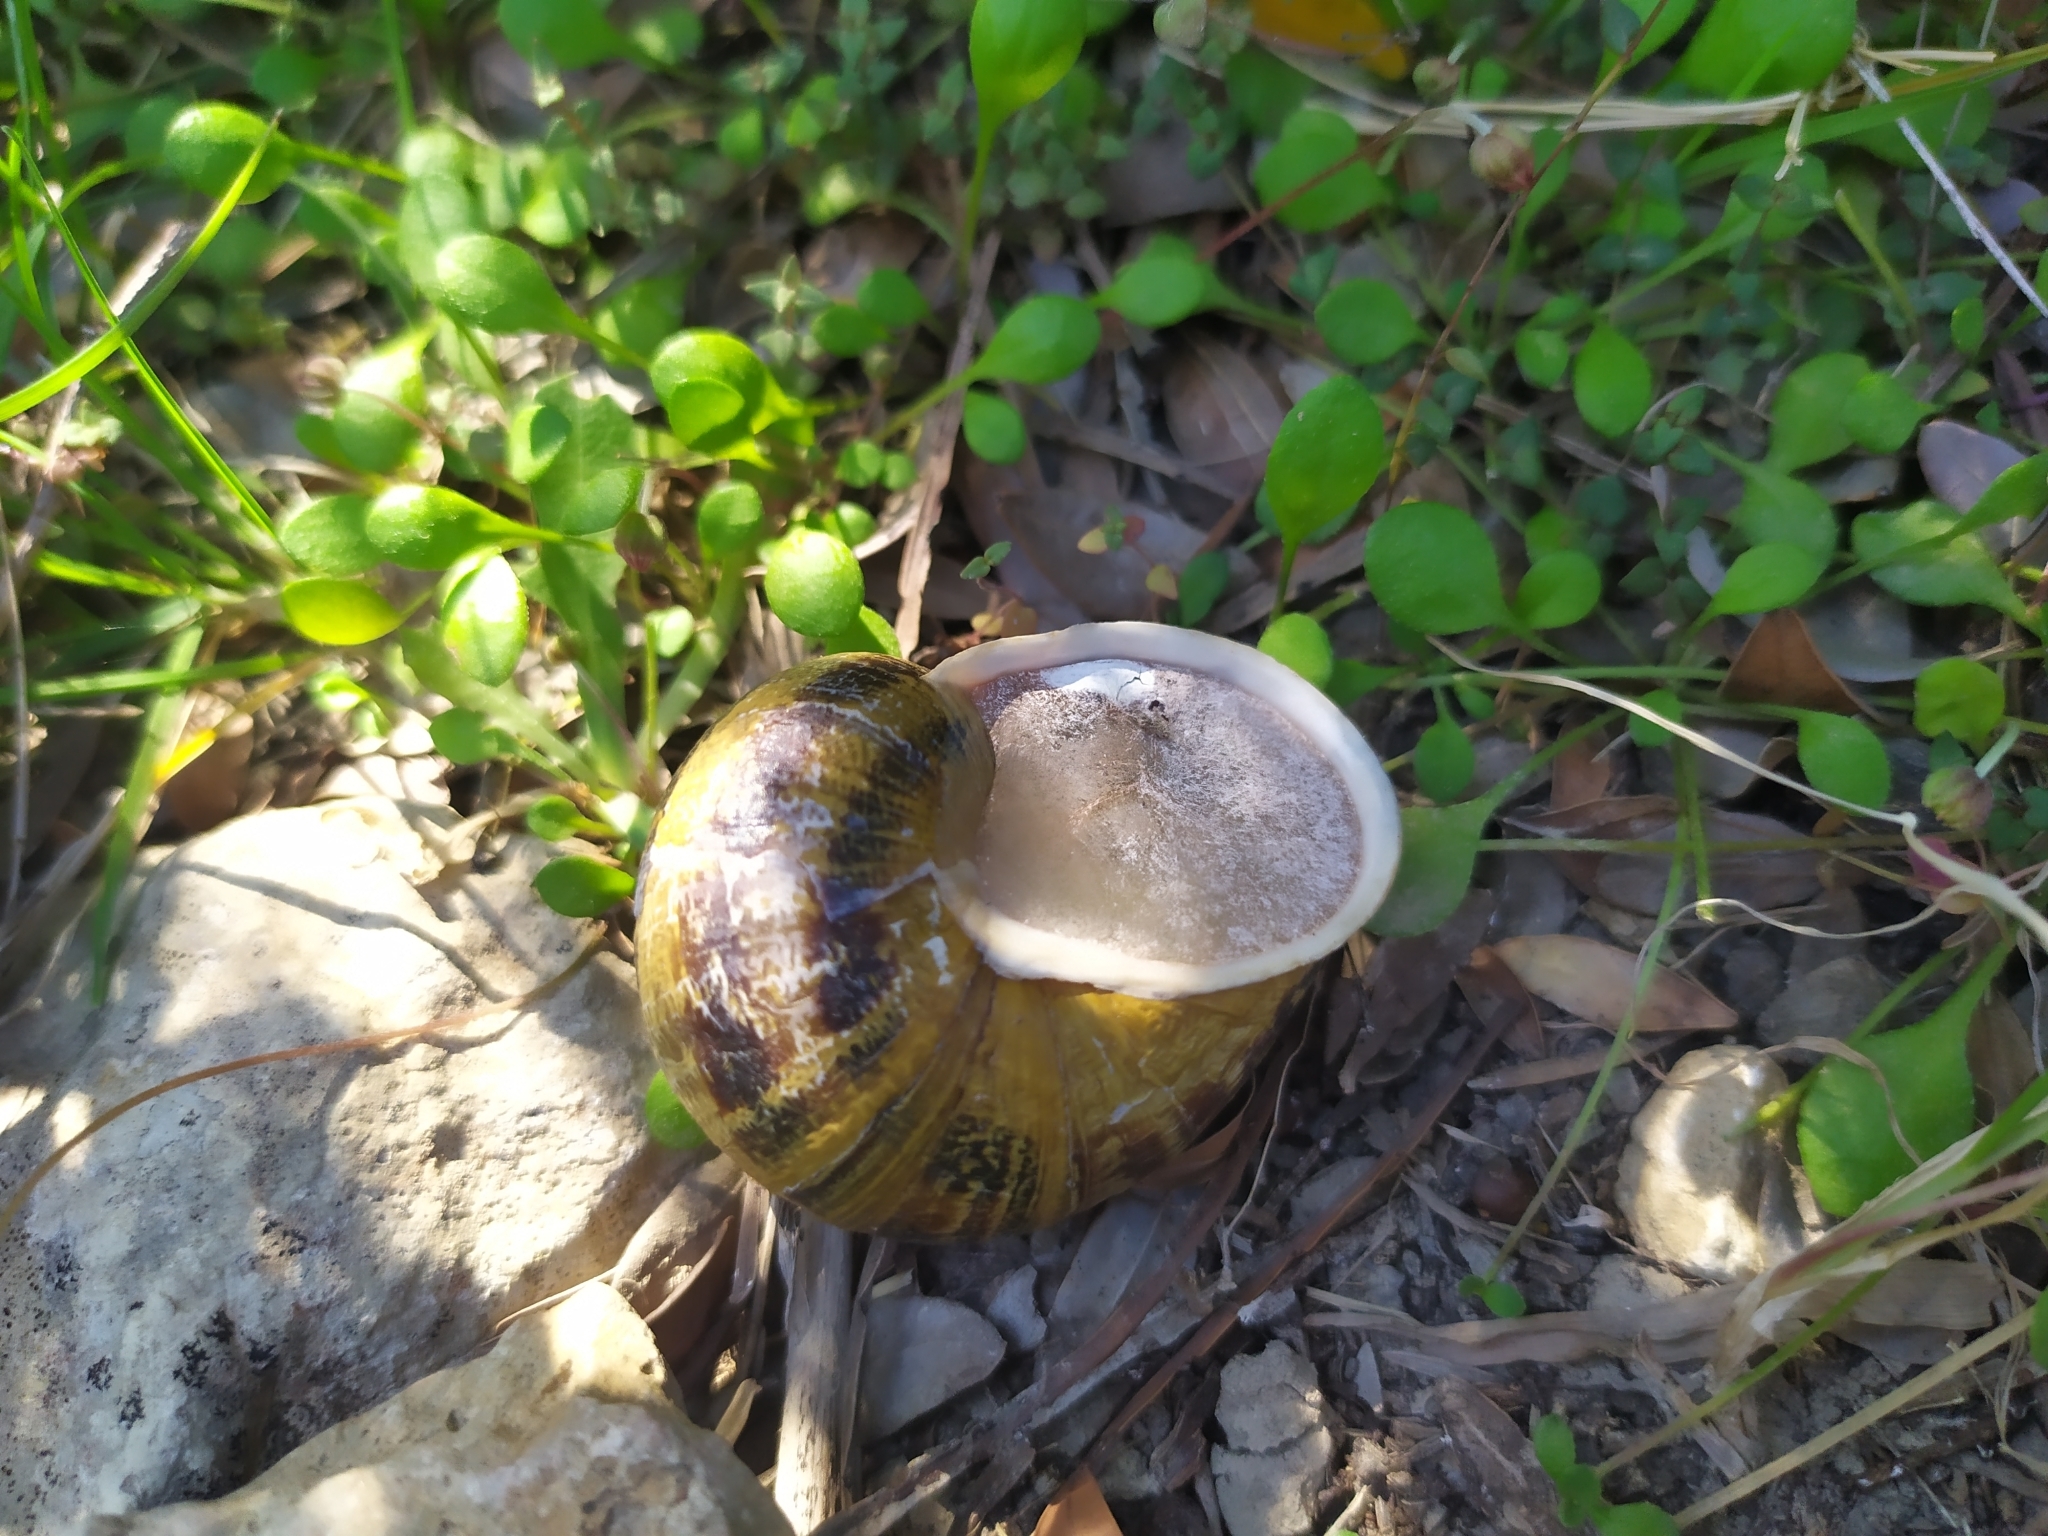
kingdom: Animalia
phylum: Mollusca
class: Gastropoda
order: Stylommatophora
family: Helicidae
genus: Cornu
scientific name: Cornu aspersum
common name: Brown garden snail
